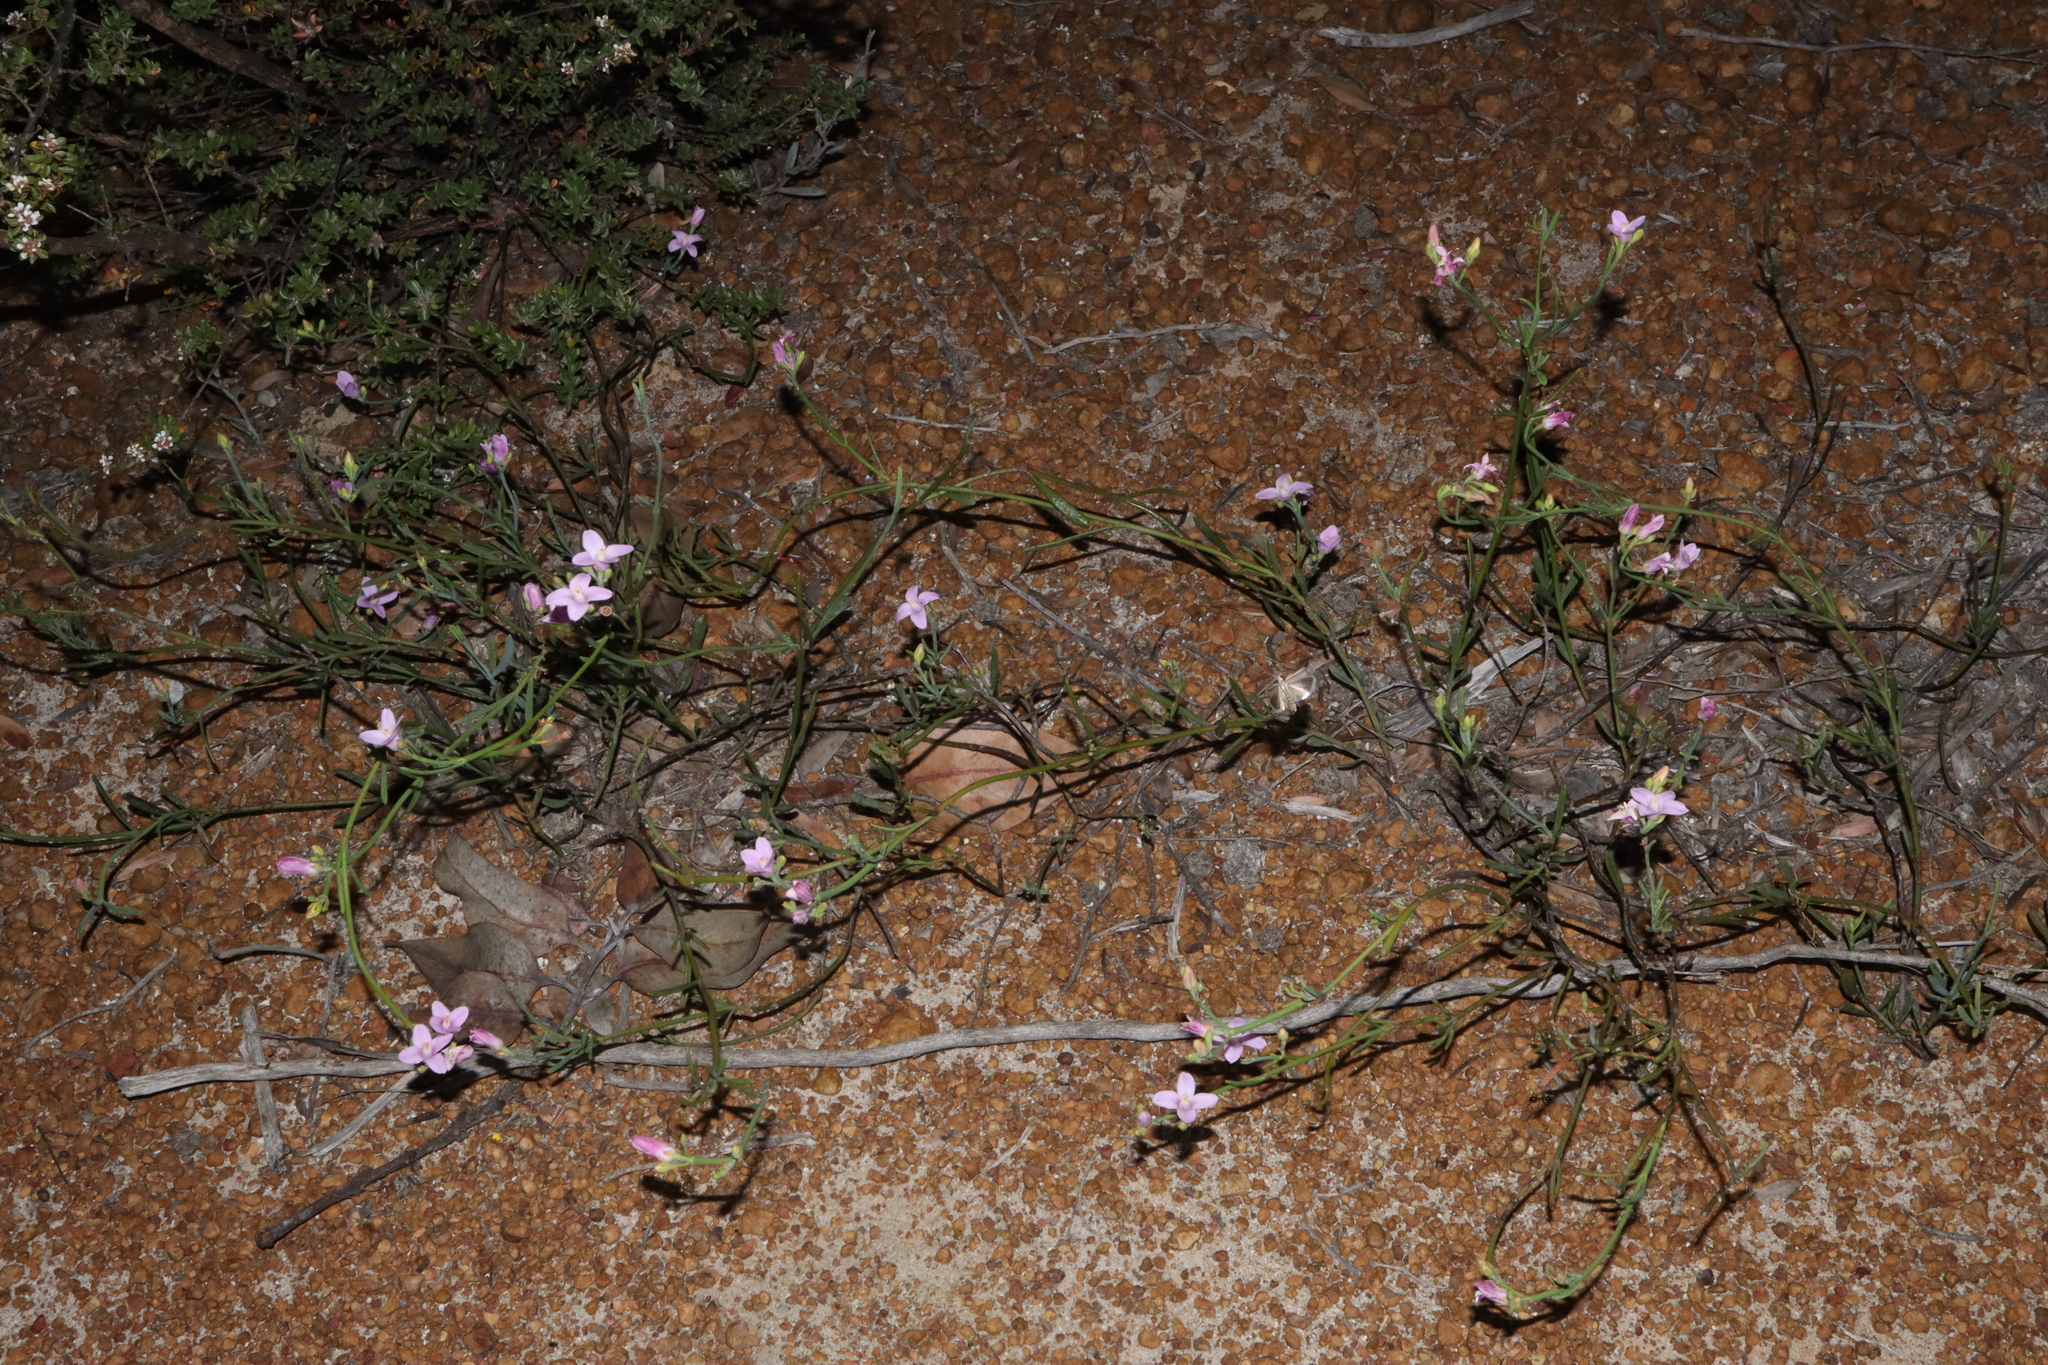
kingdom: Plantae
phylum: Tracheophyta
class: Magnoliopsida
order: Sapindales
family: Rutaceae
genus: Boronia
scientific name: Boronia spathulata
